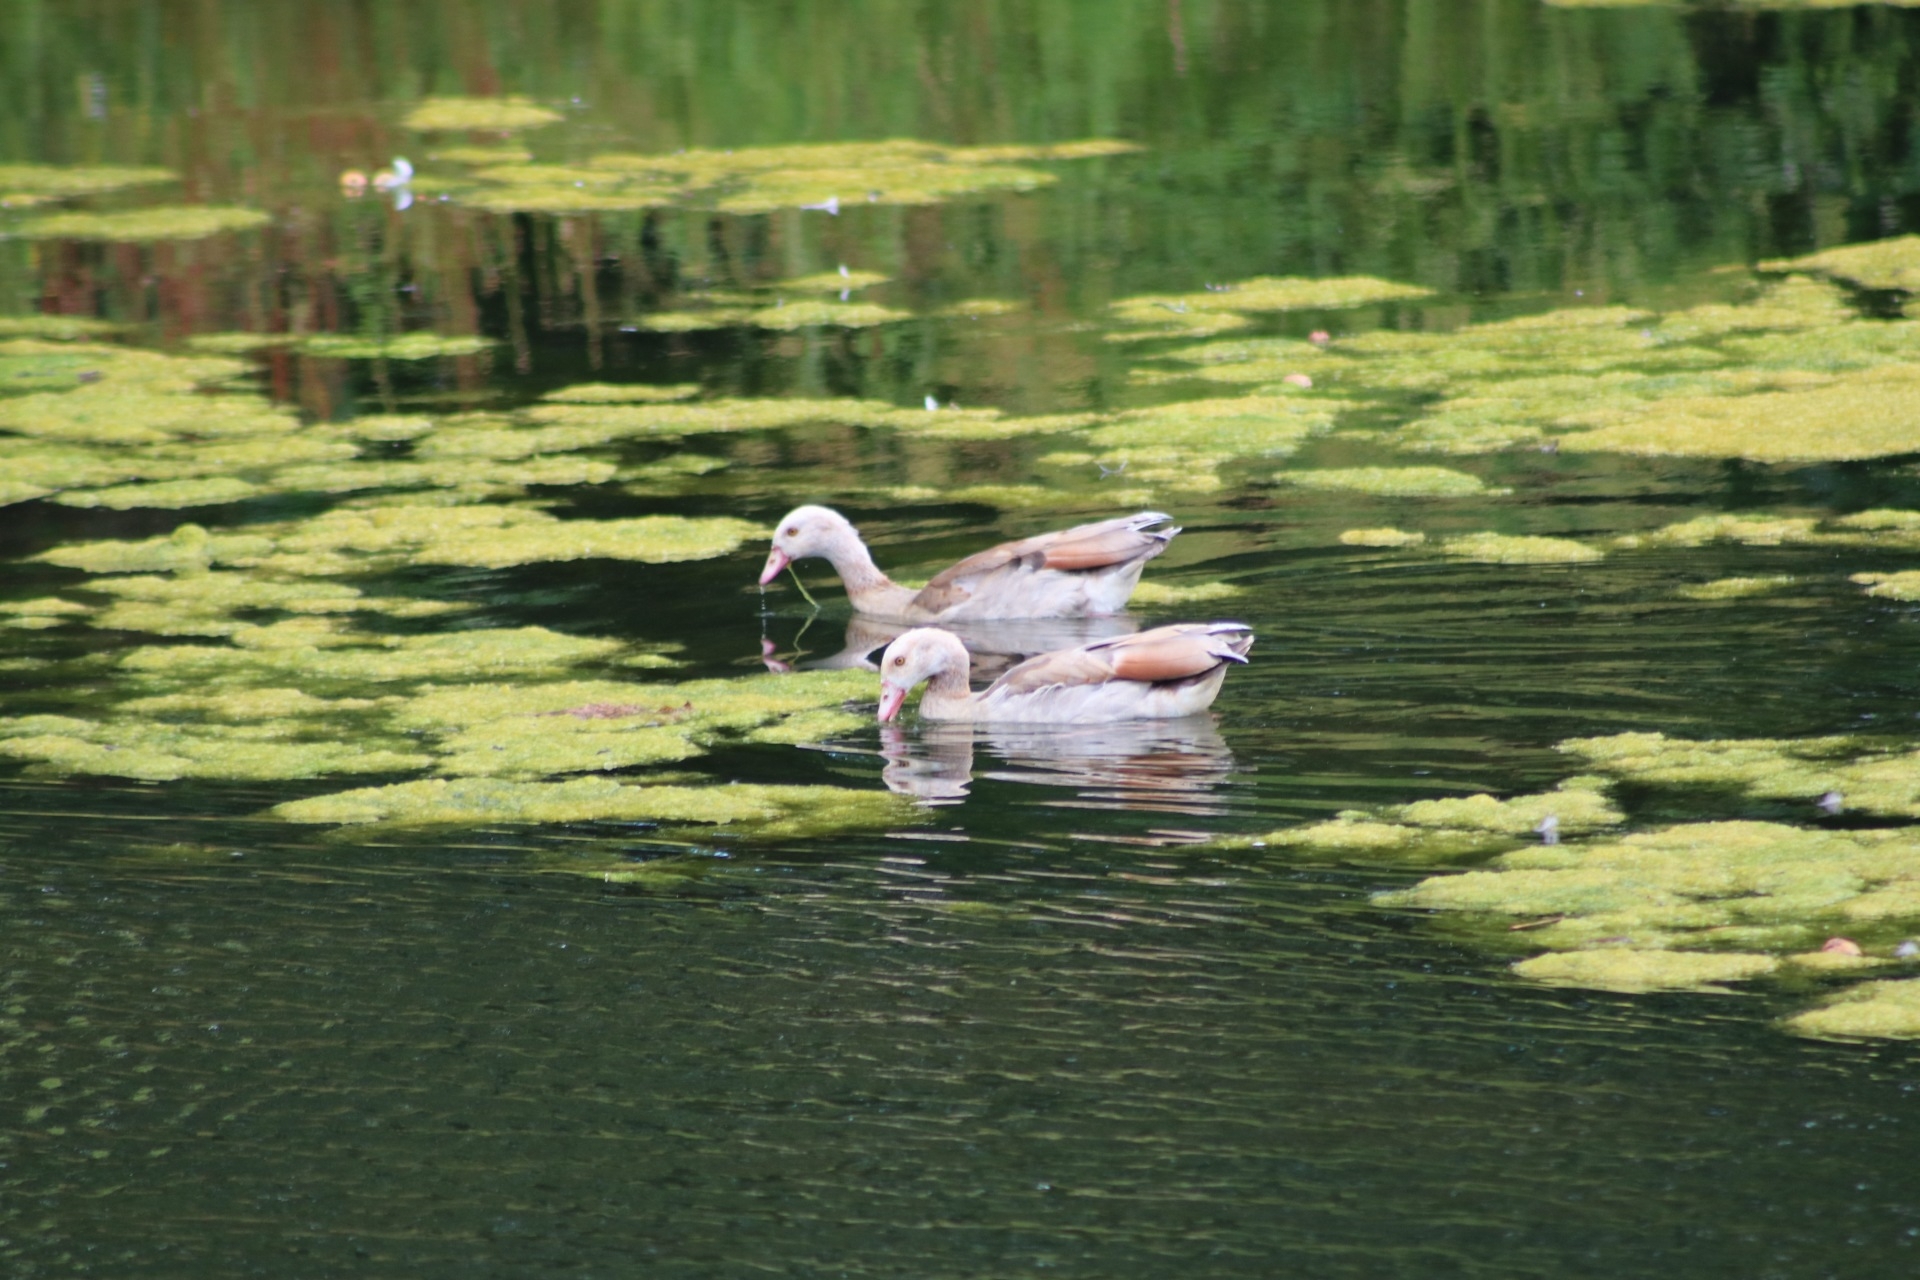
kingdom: Animalia
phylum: Chordata
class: Aves
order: Anseriformes
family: Anatidae
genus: Alopochen
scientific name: Alopochen aegyptiaca
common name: Egyptian goose
